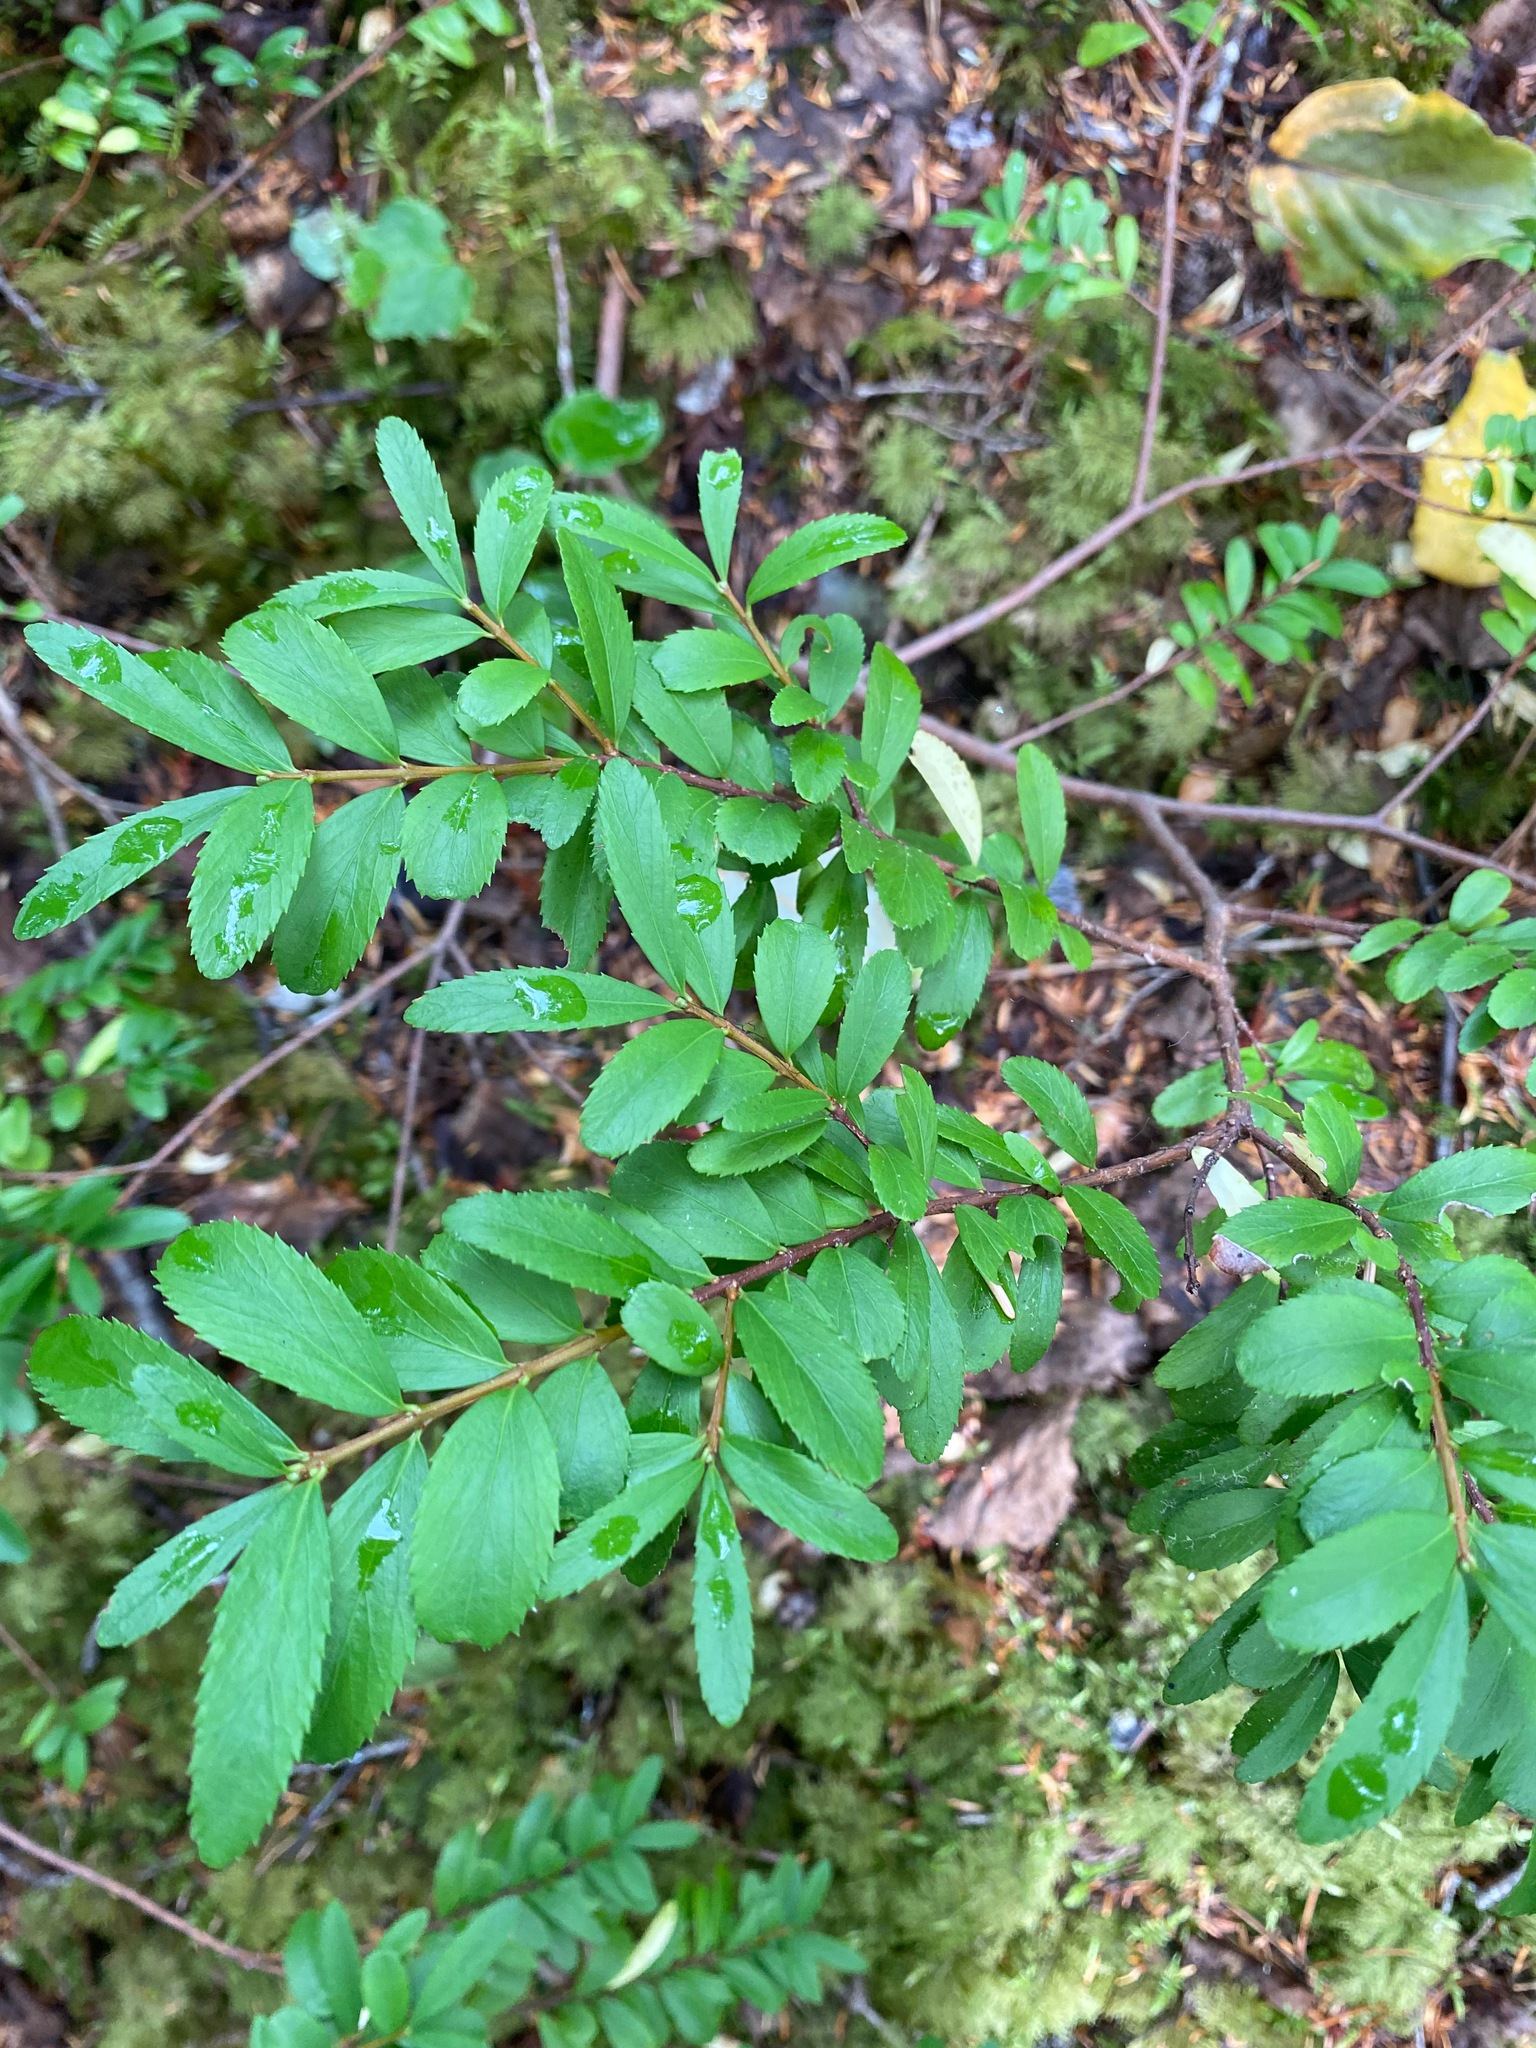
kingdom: Plantae
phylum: Tracheophyta
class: Magnoliopsida
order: Celastrales
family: Celastraceae
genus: Paxistima
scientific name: Paxistima myrsinites
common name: Mountain-lover
